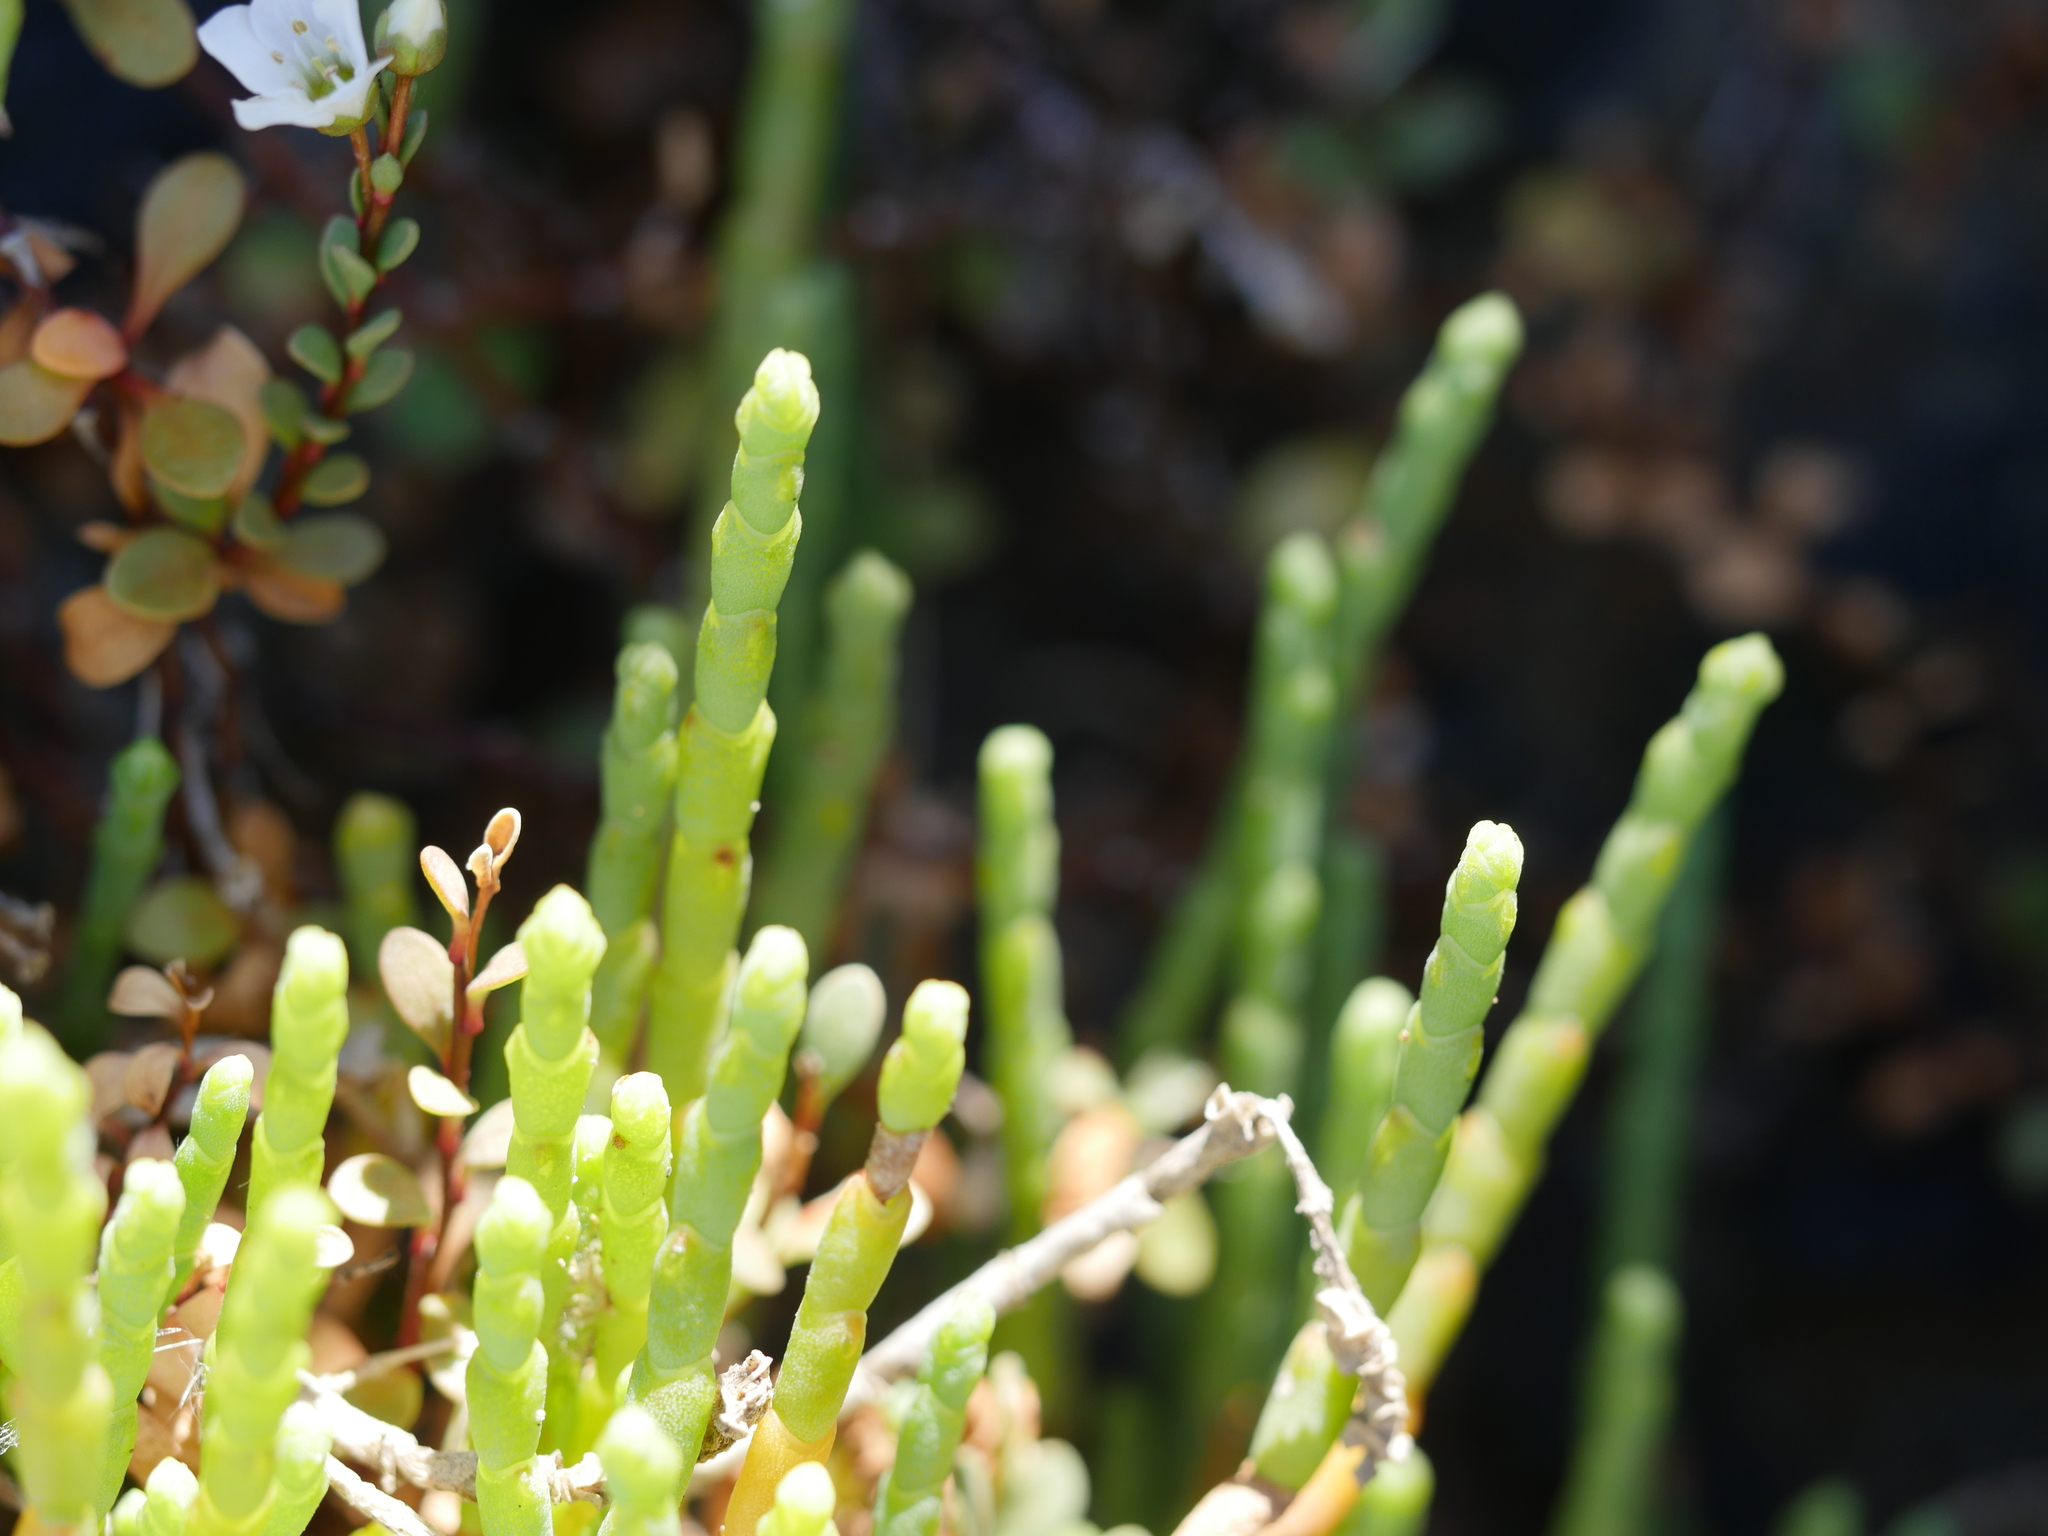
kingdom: Plantae
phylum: Tracheophyta
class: Magnoliopsida
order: Caryophyllales
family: Amaranthaceae
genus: Salicornia
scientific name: Salicornia quinqueflora
